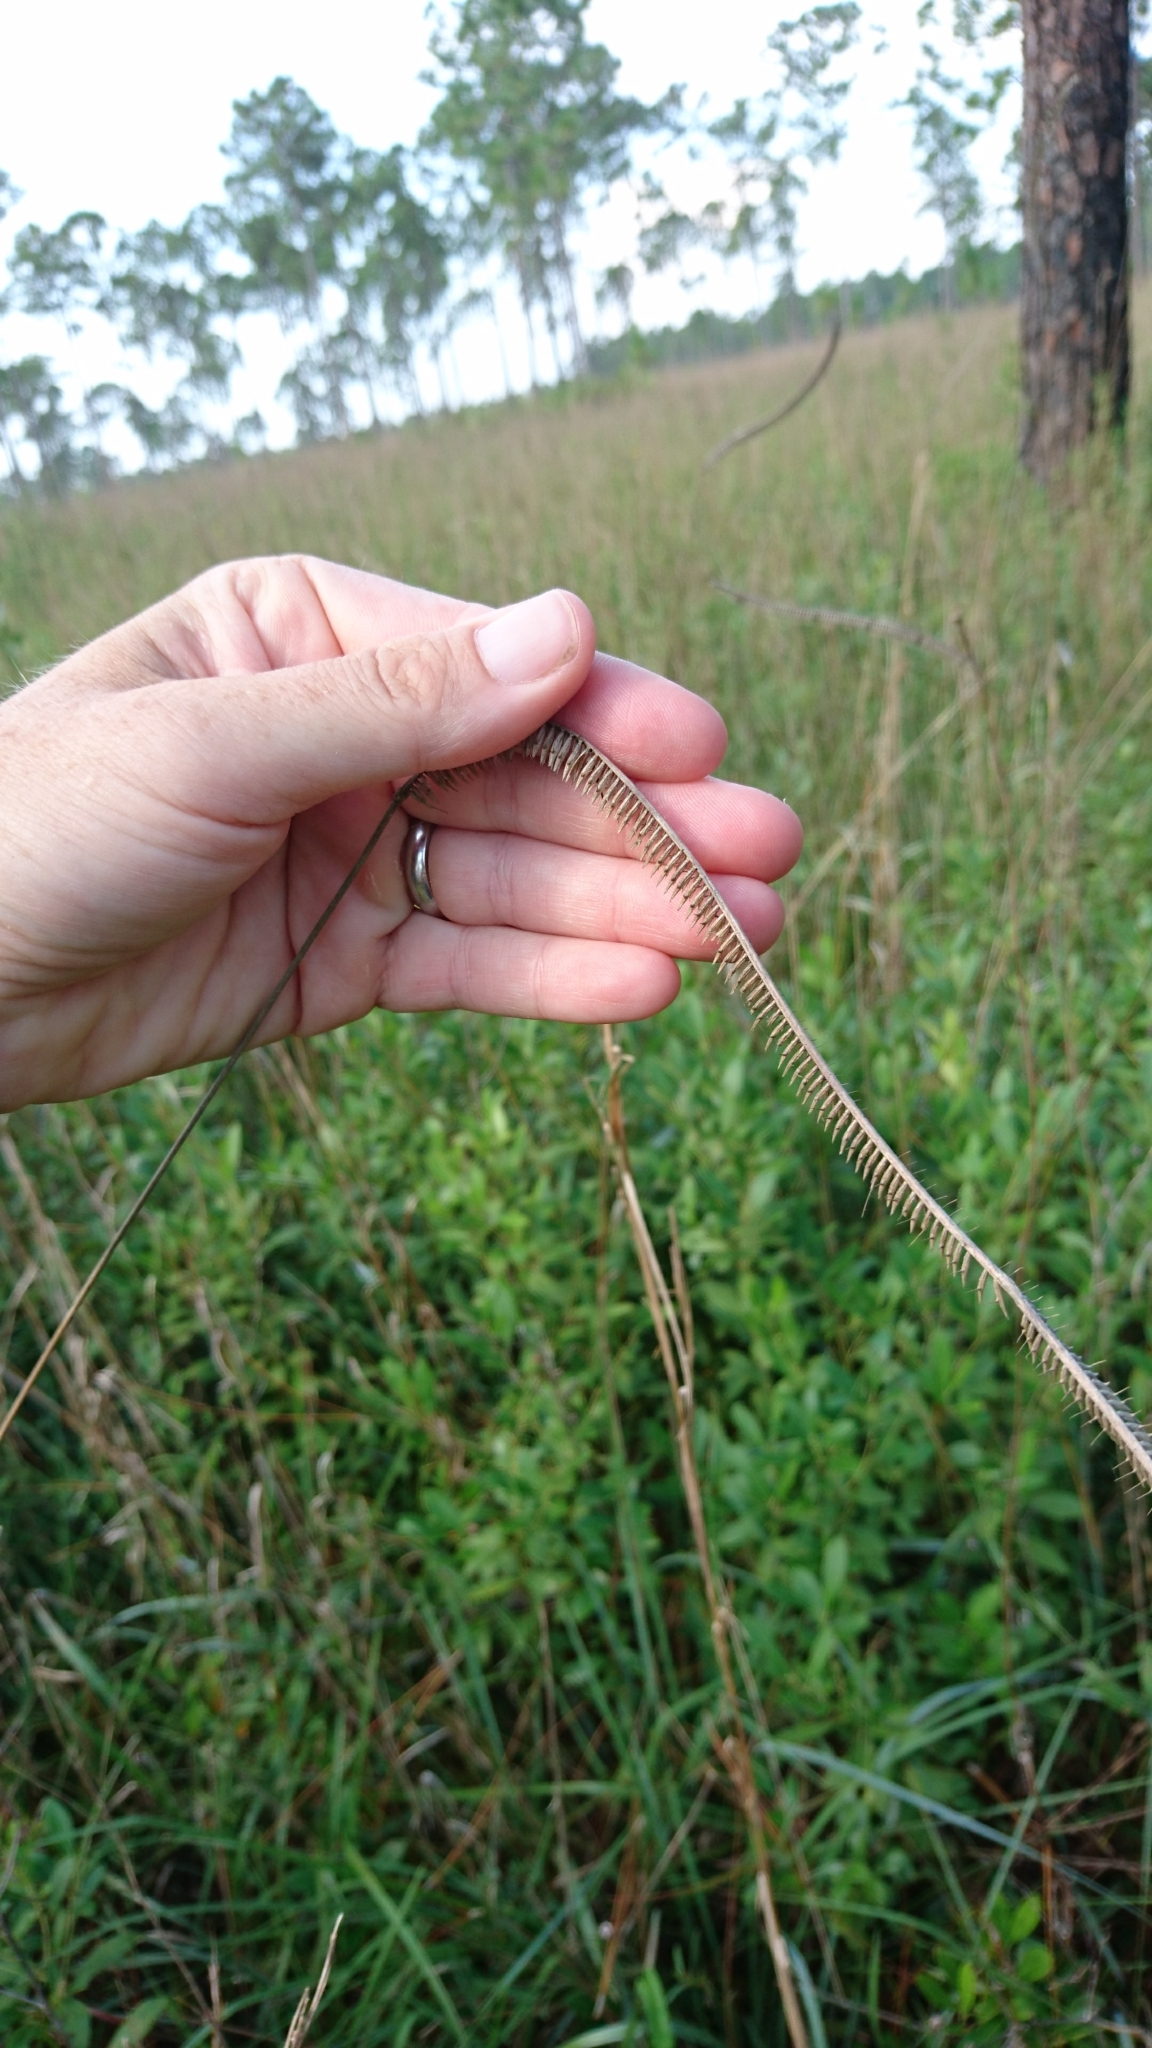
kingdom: Plantae
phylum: Tracheophyta
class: Liliopsida
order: Poales
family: Poaceae
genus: Ctenium
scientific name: Ctenium aromaticum
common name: Toothache grass
